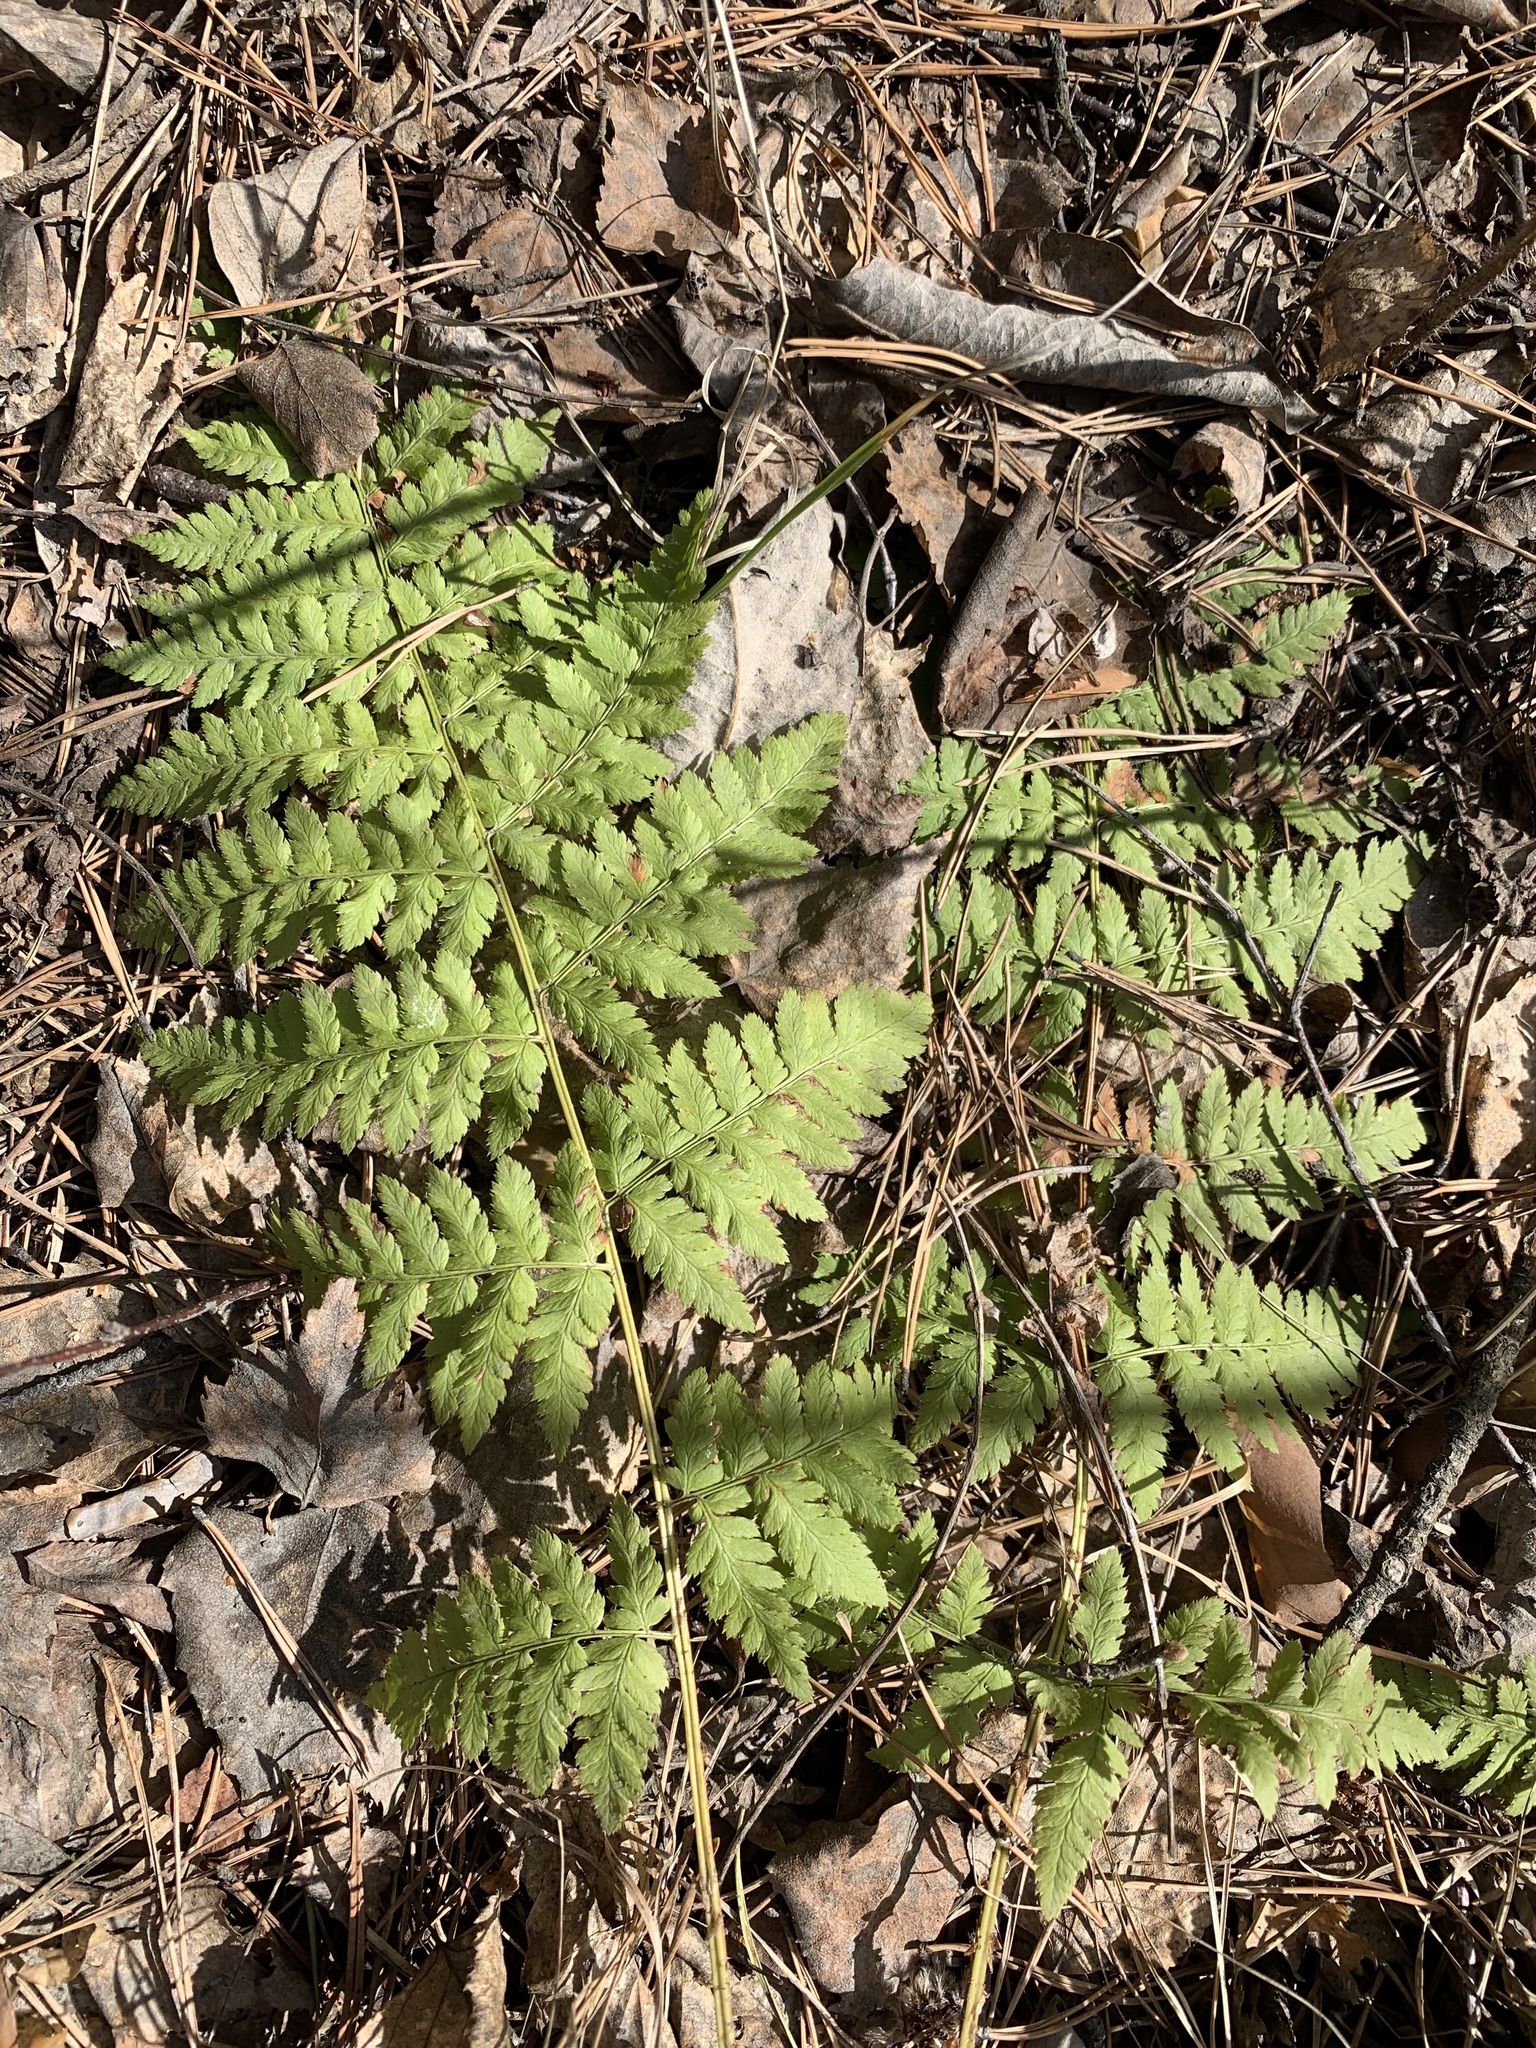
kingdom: Plantae
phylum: Tracheophyta
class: Polypodiopsida
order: Polypodiales
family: Dryopteridaceae
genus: Dryopteris
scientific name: Dryopteris carthusiana
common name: Narrow buckler-fern
